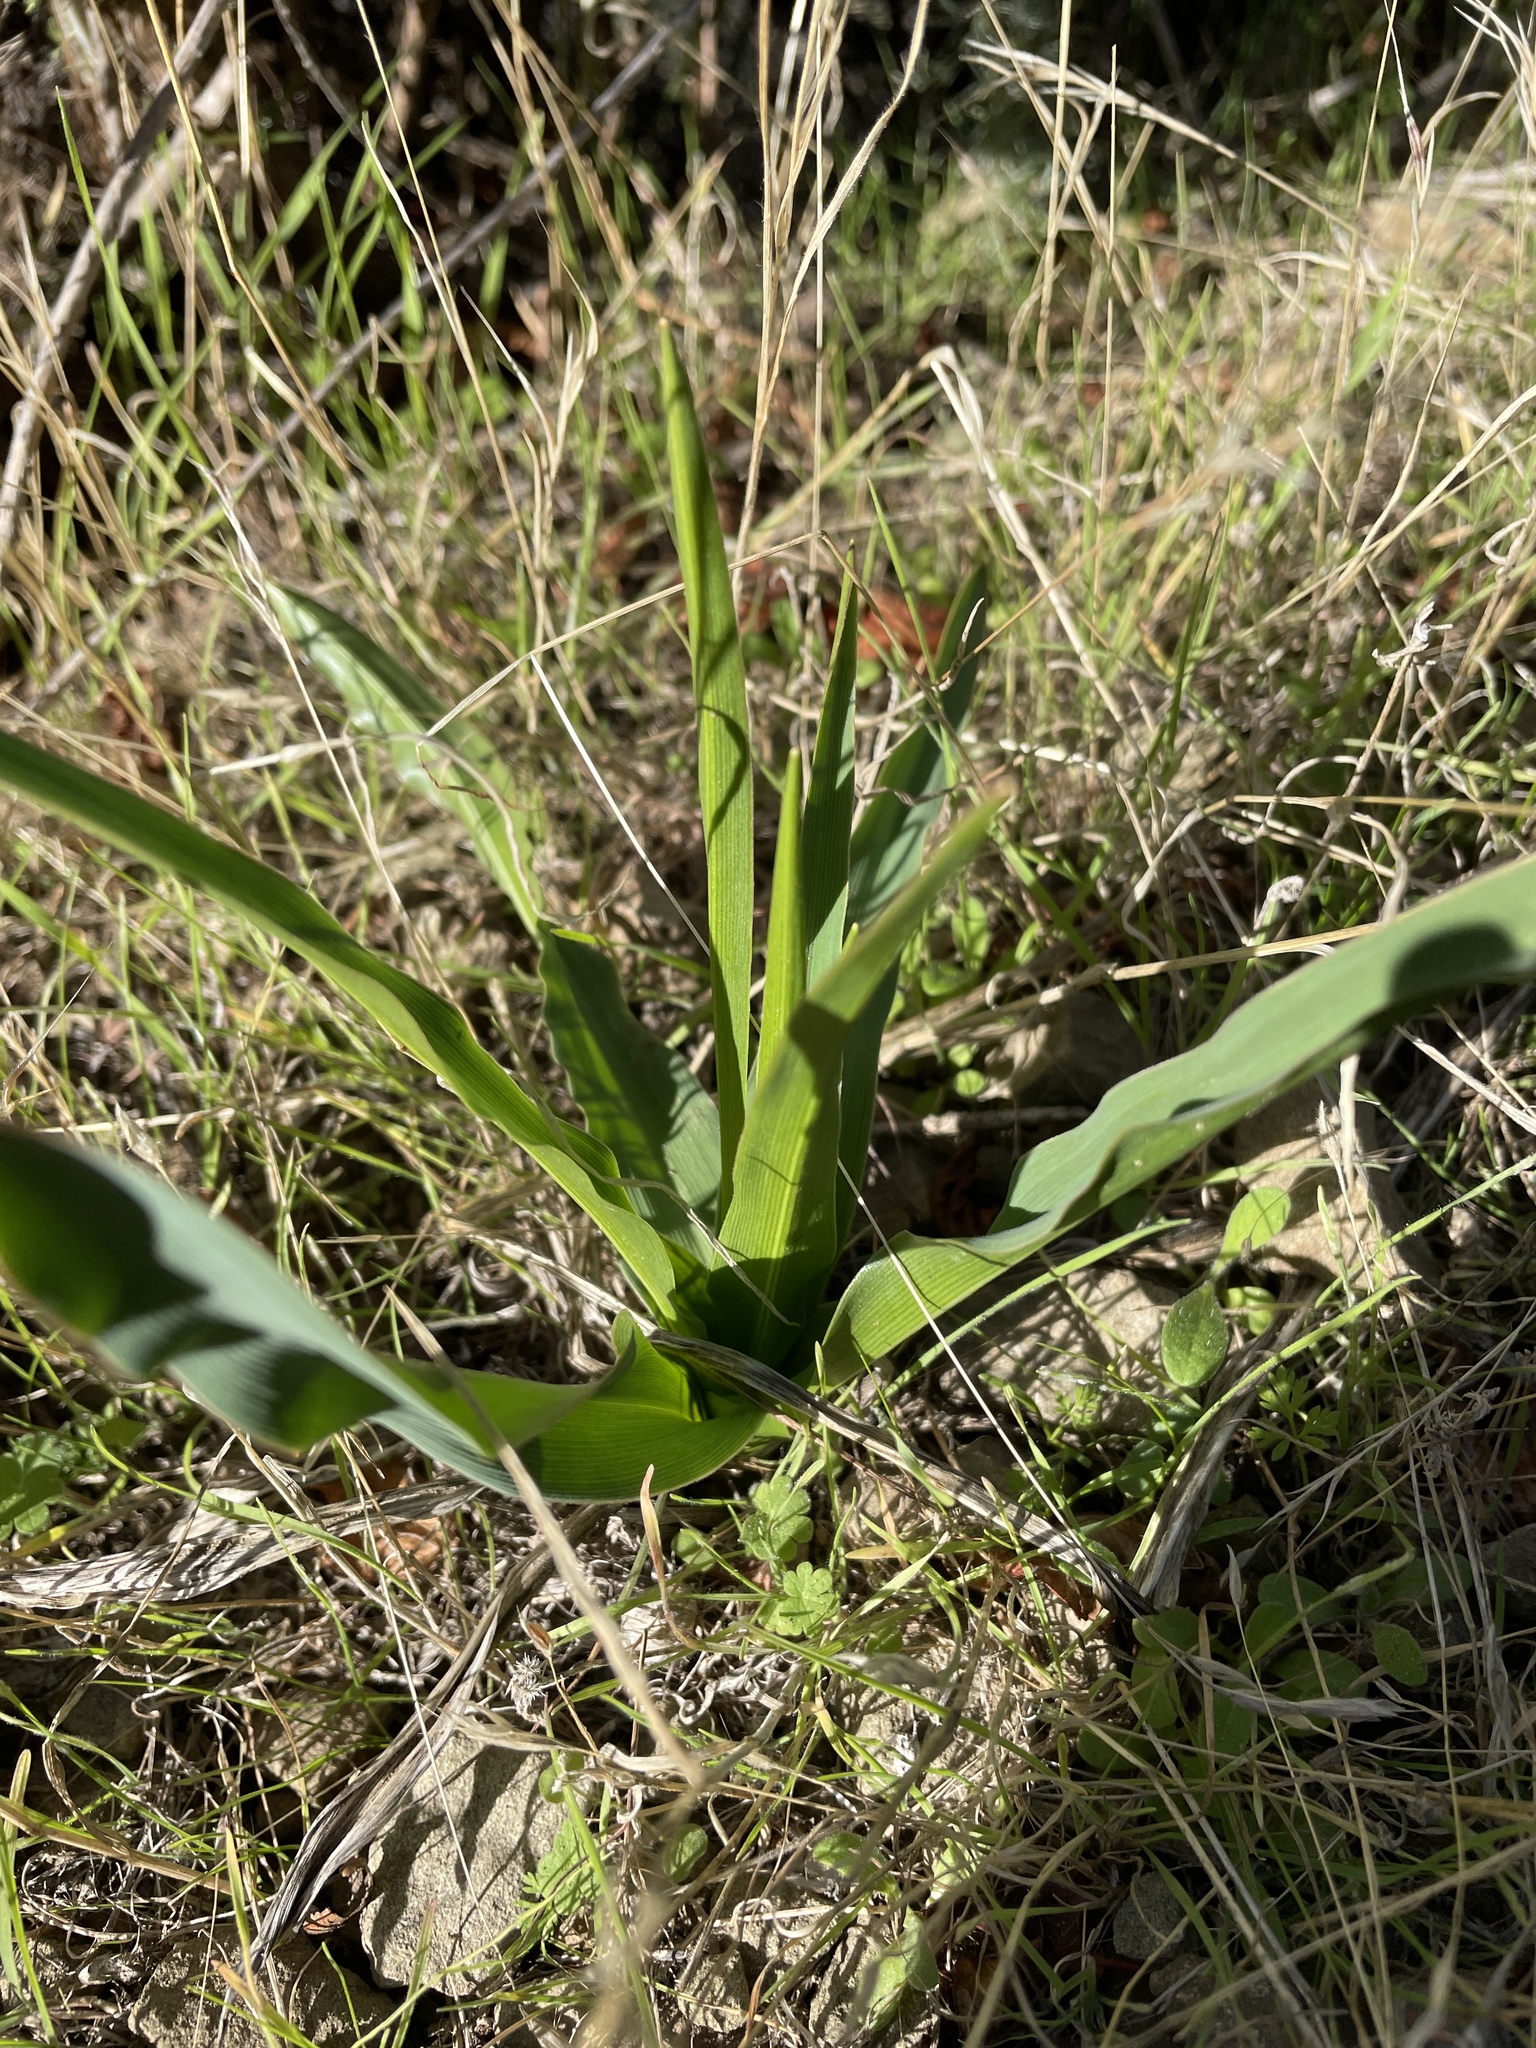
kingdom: Plantae
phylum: Tracheophyta
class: Liliopsida
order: Asparagales
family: Asparagaceae
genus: Chlorogalum
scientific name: Chlorogalum pomeridianum
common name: Amole
